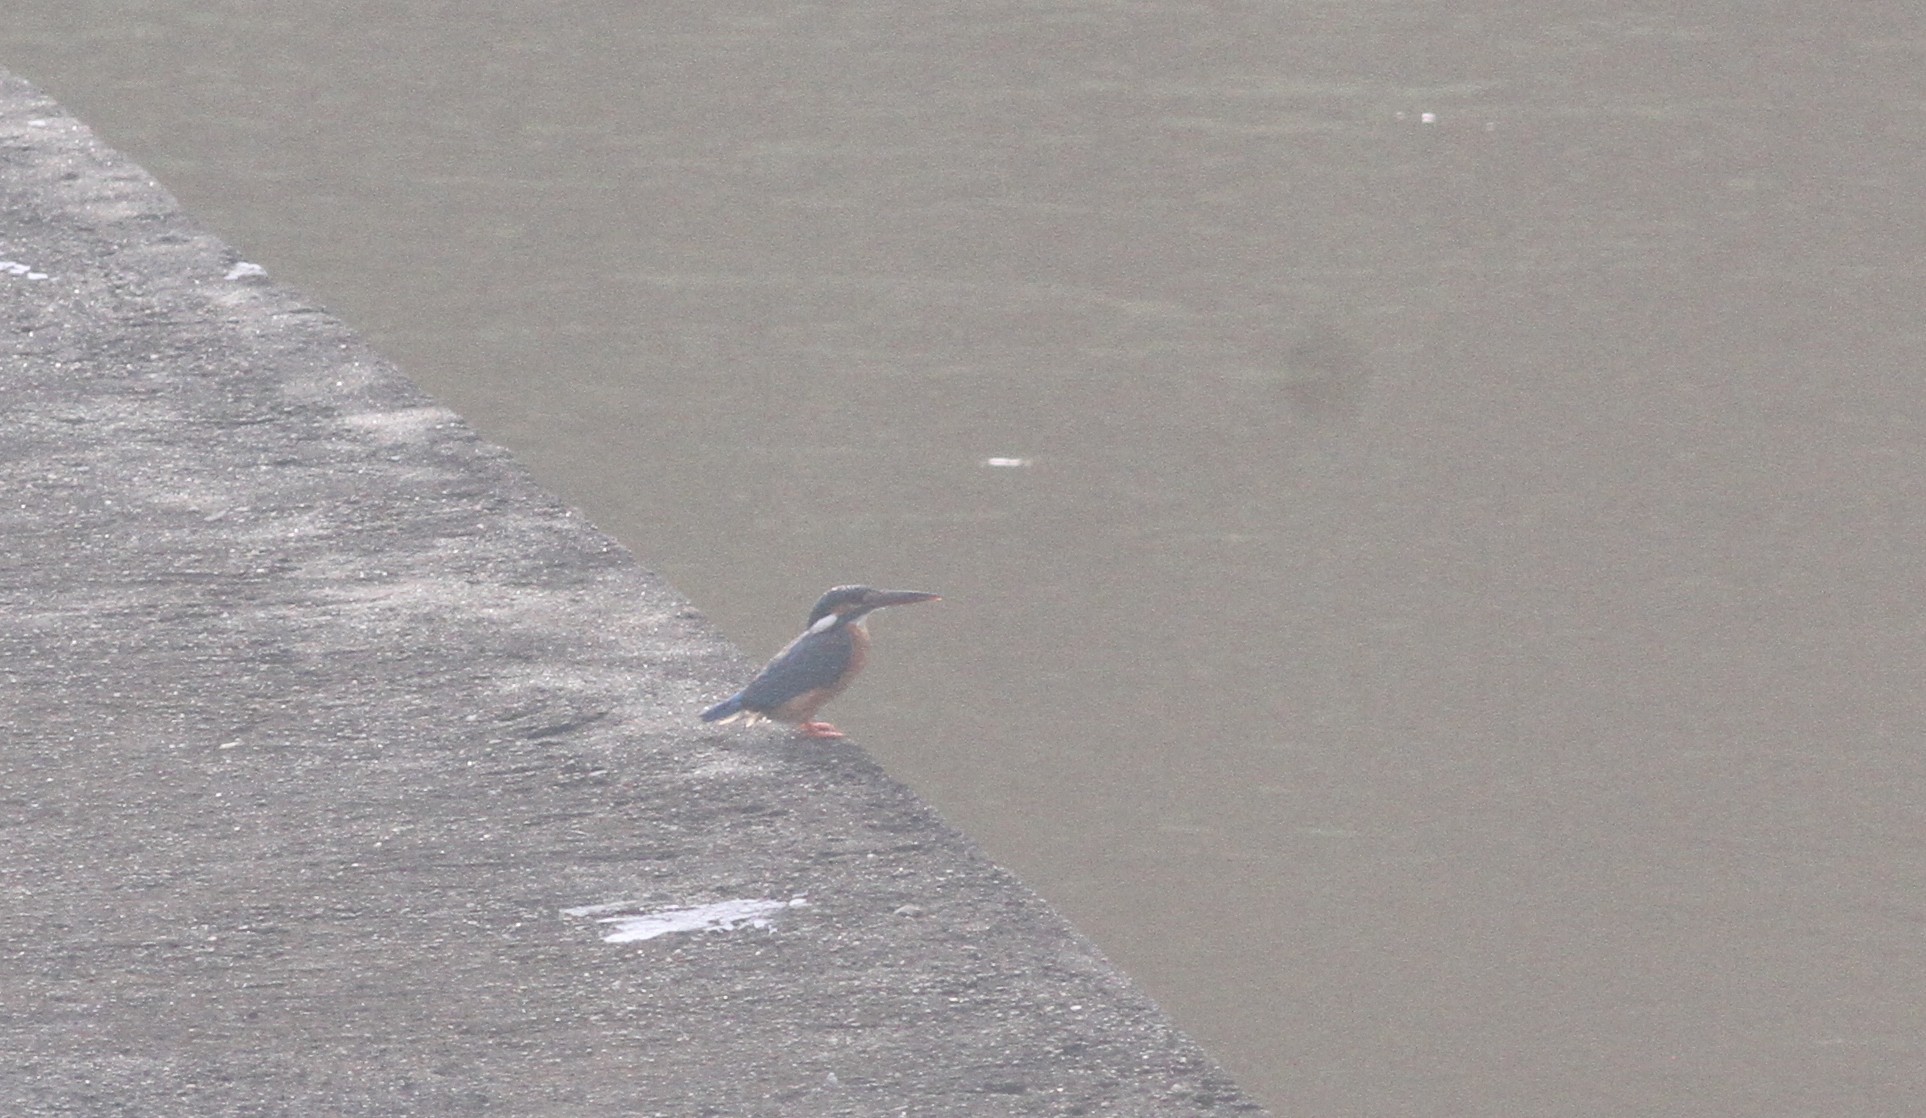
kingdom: Animalia
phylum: Chordata
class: Aves
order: Coraciiformes
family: Alcedinidae
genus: Alcedo
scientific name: Alcedo atthis
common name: Common kingfisher
